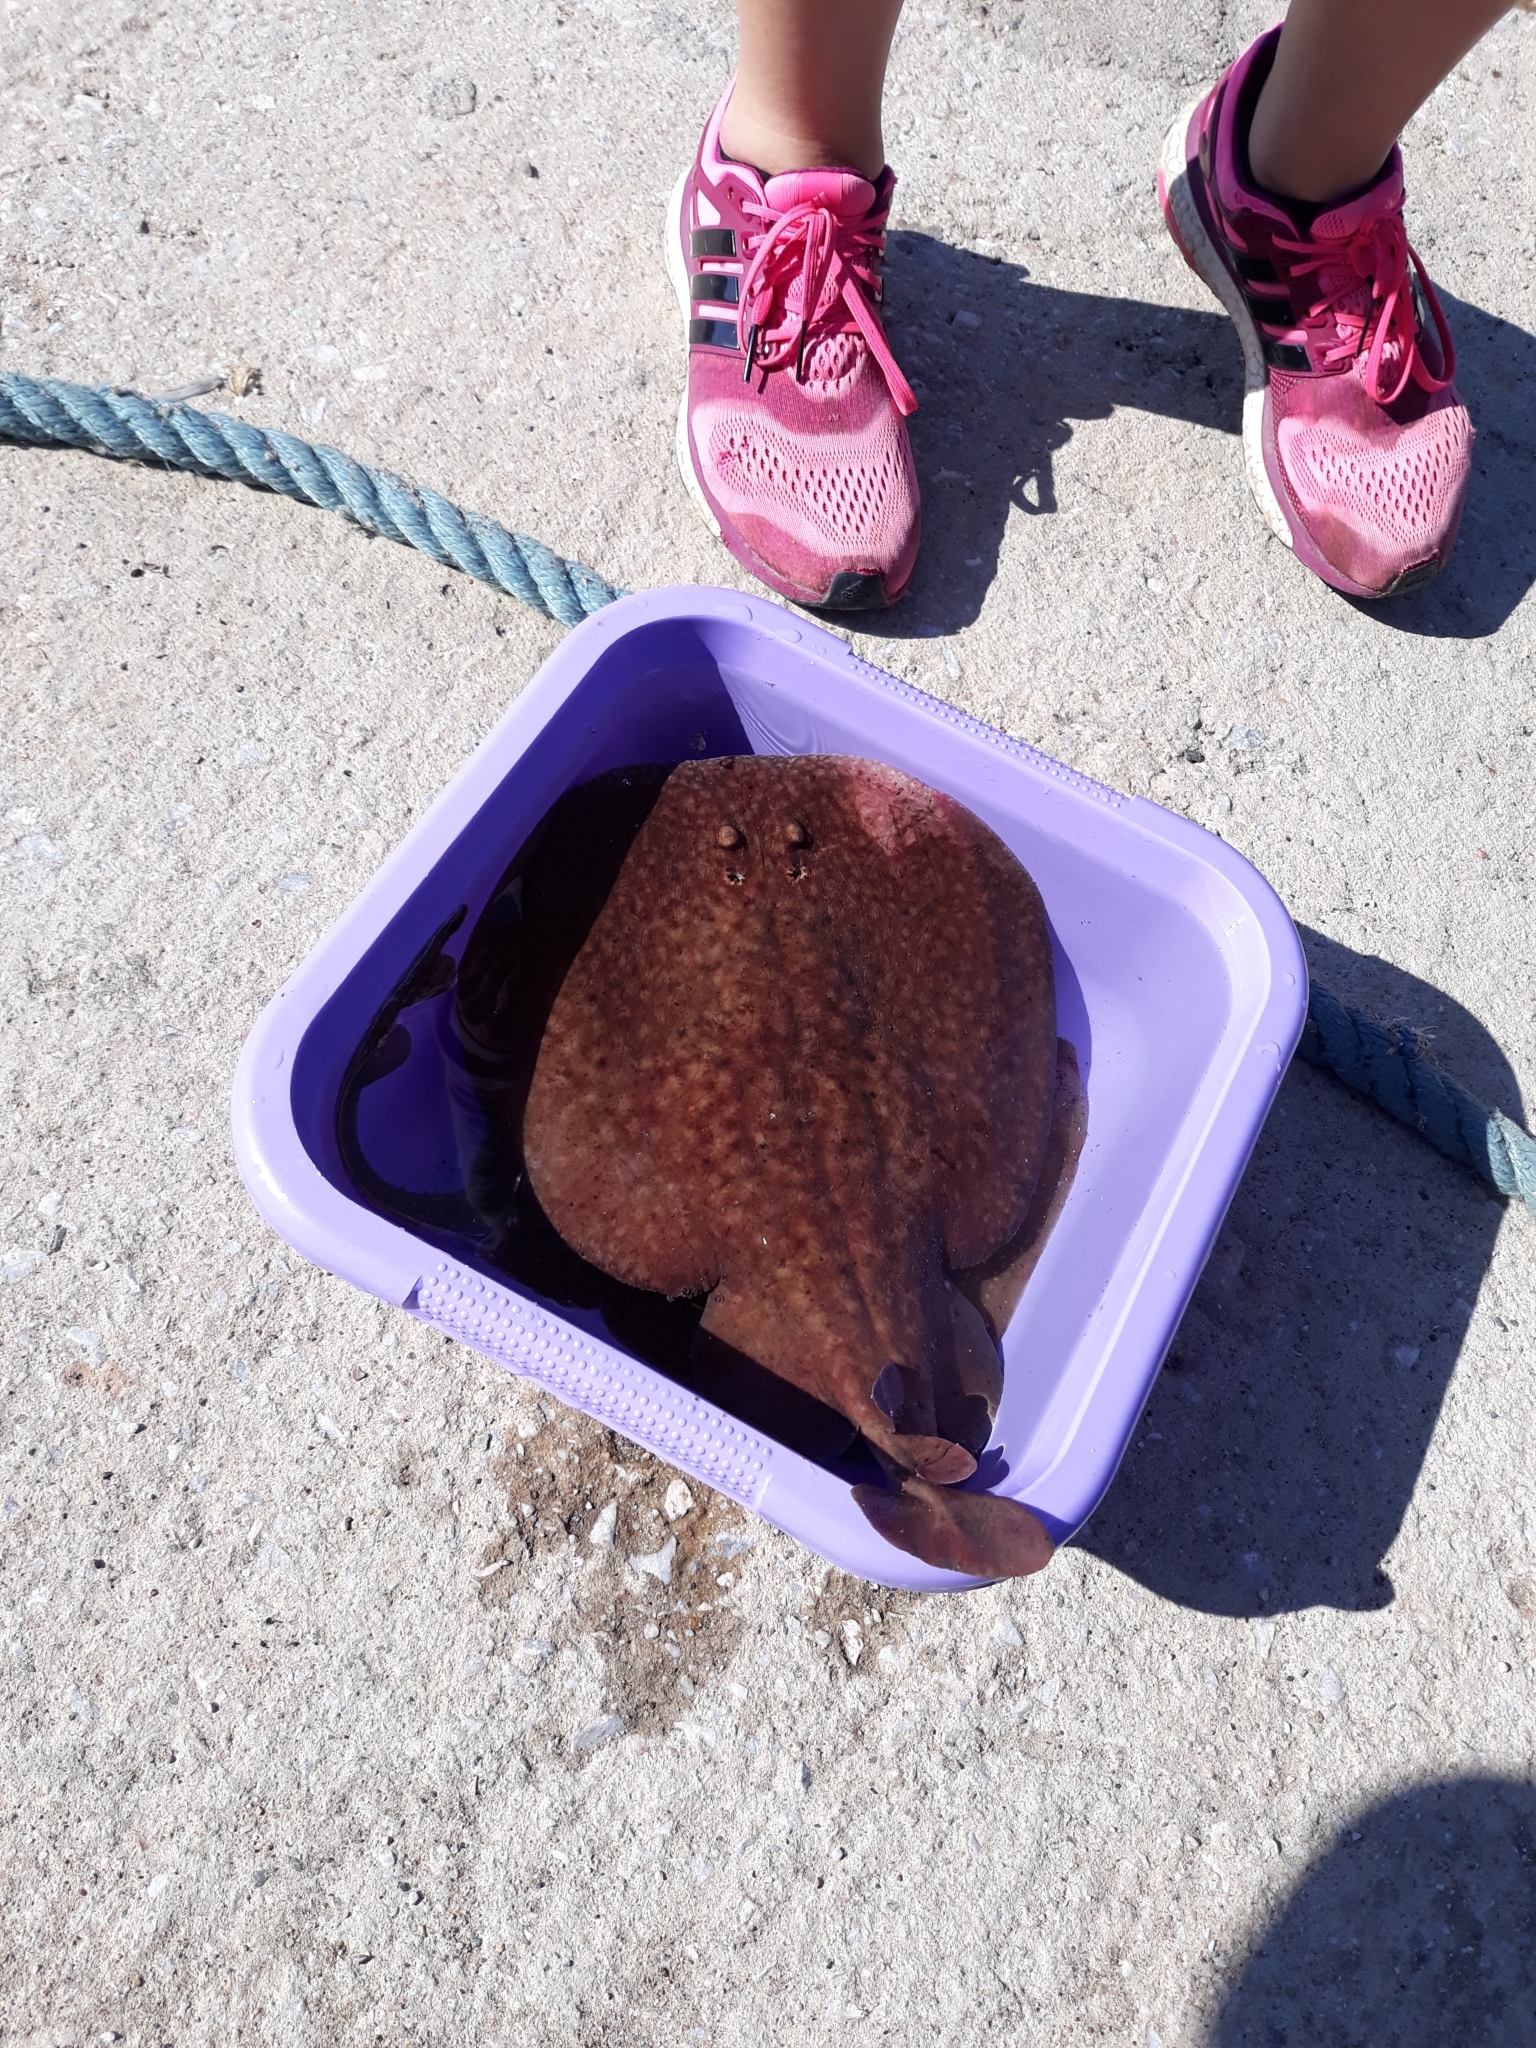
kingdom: Animalia
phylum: Chordata
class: Elasmobranchii
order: Torpediniformes
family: Torpedinidae
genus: Torpedo
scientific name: Torpedo marmorata
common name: Marbled electric ray
